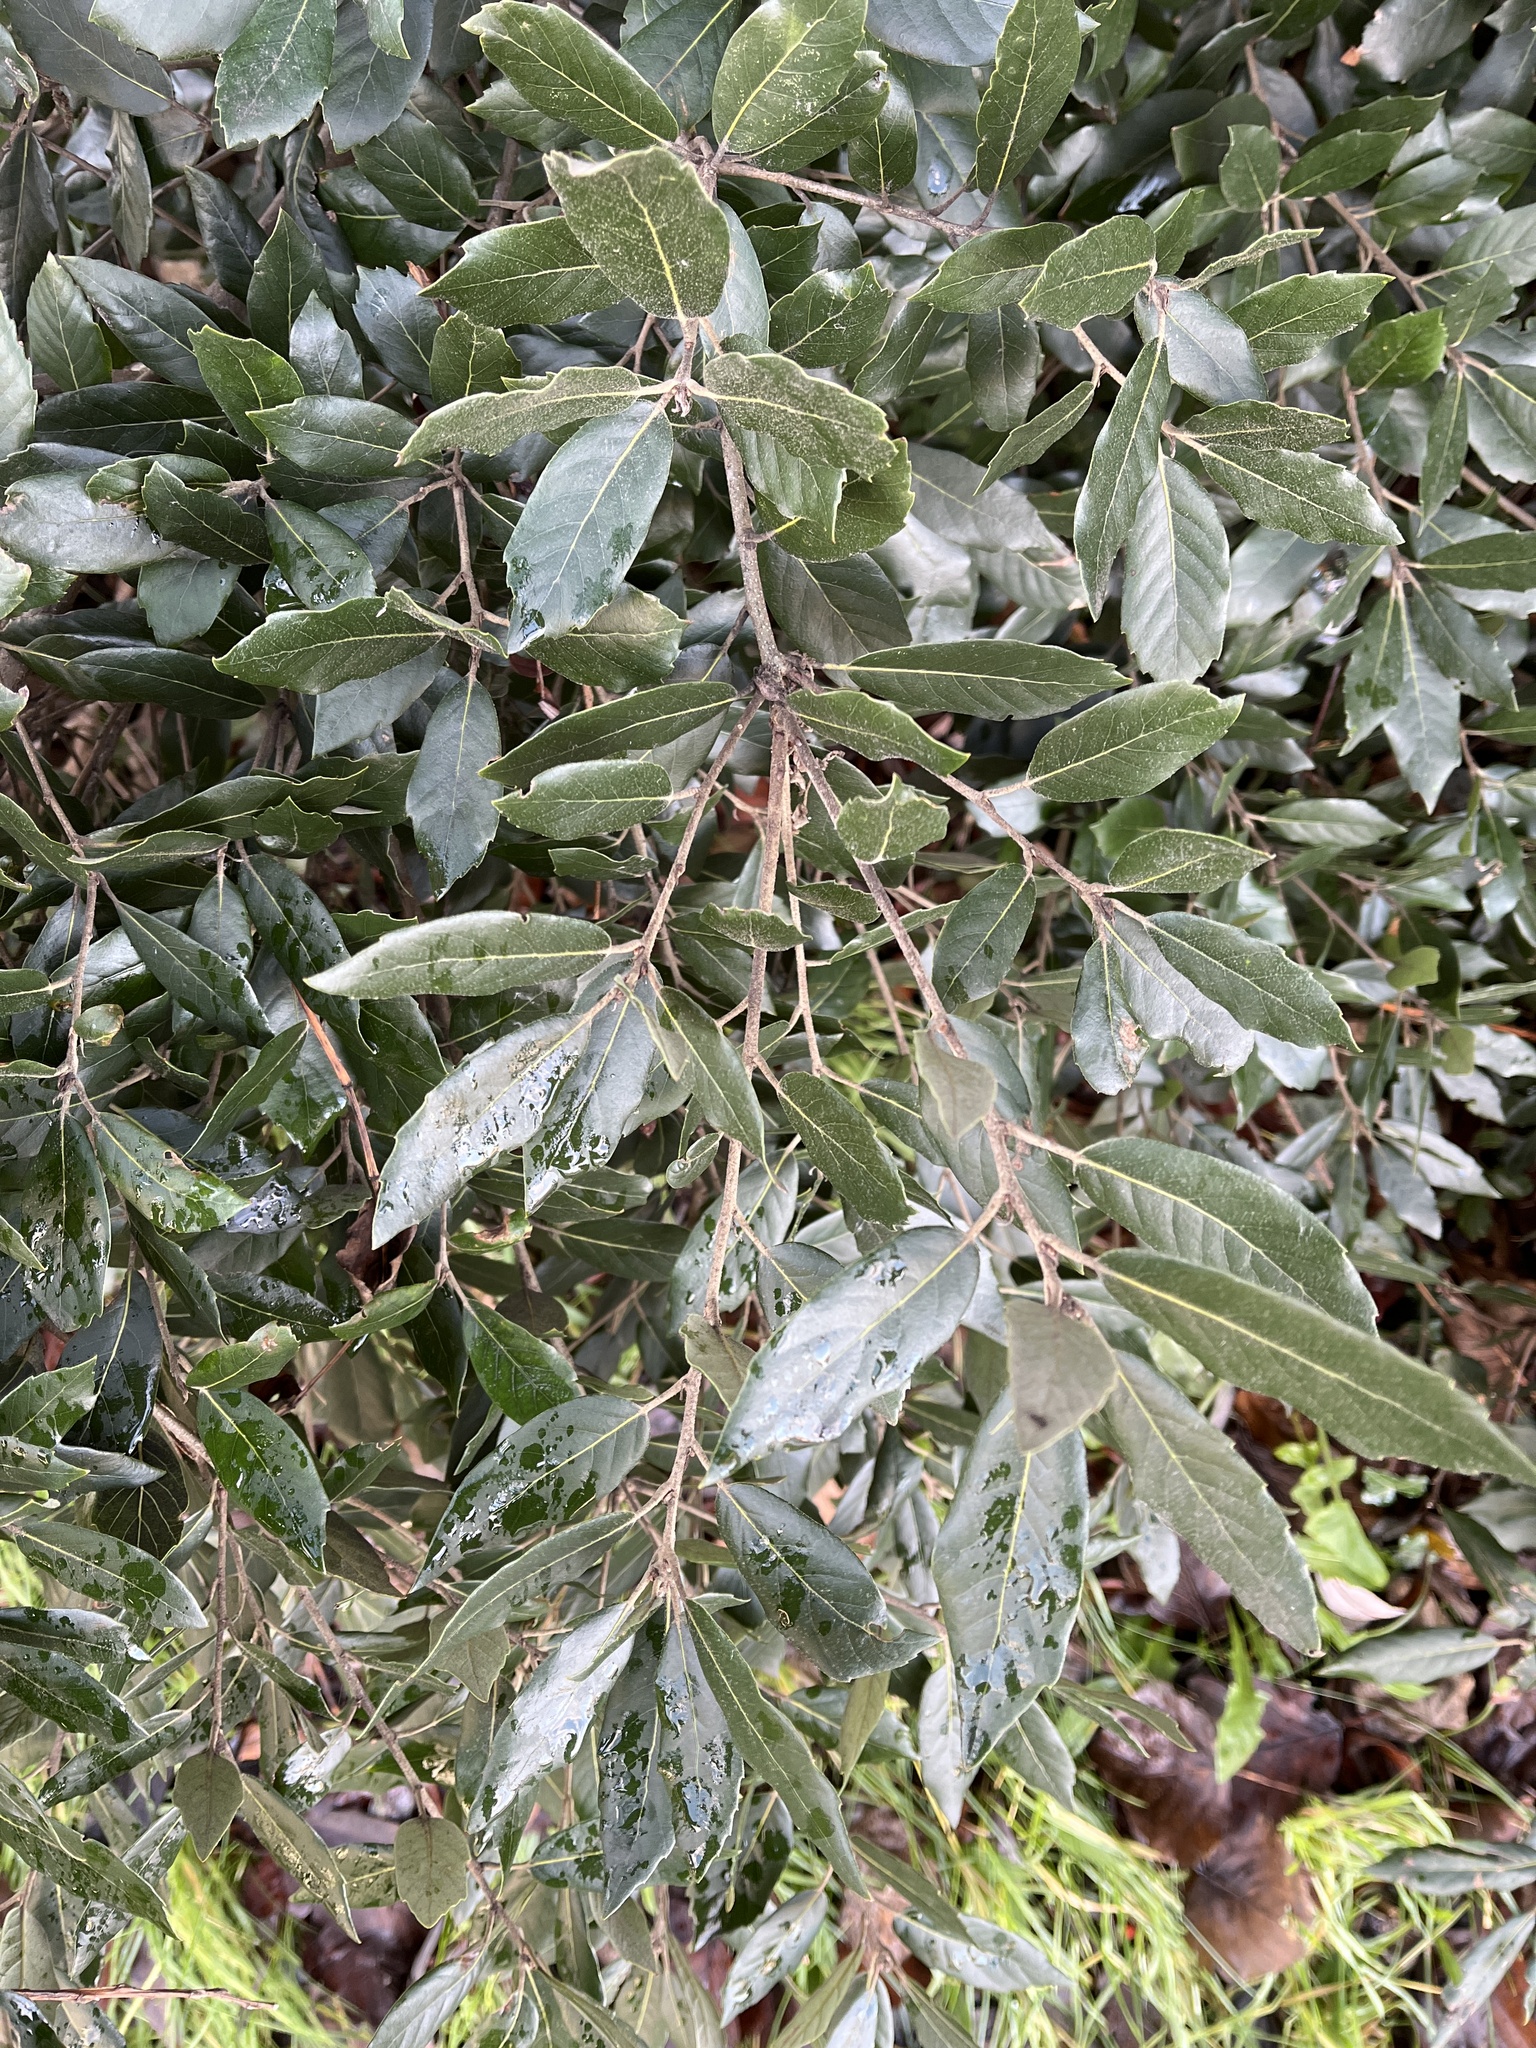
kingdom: Plantae
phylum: Tracheophyta
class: Magnoliopsida
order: Fagales
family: Fagaceae
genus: Quercus
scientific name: Quercus ilex
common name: Evergreen oak
